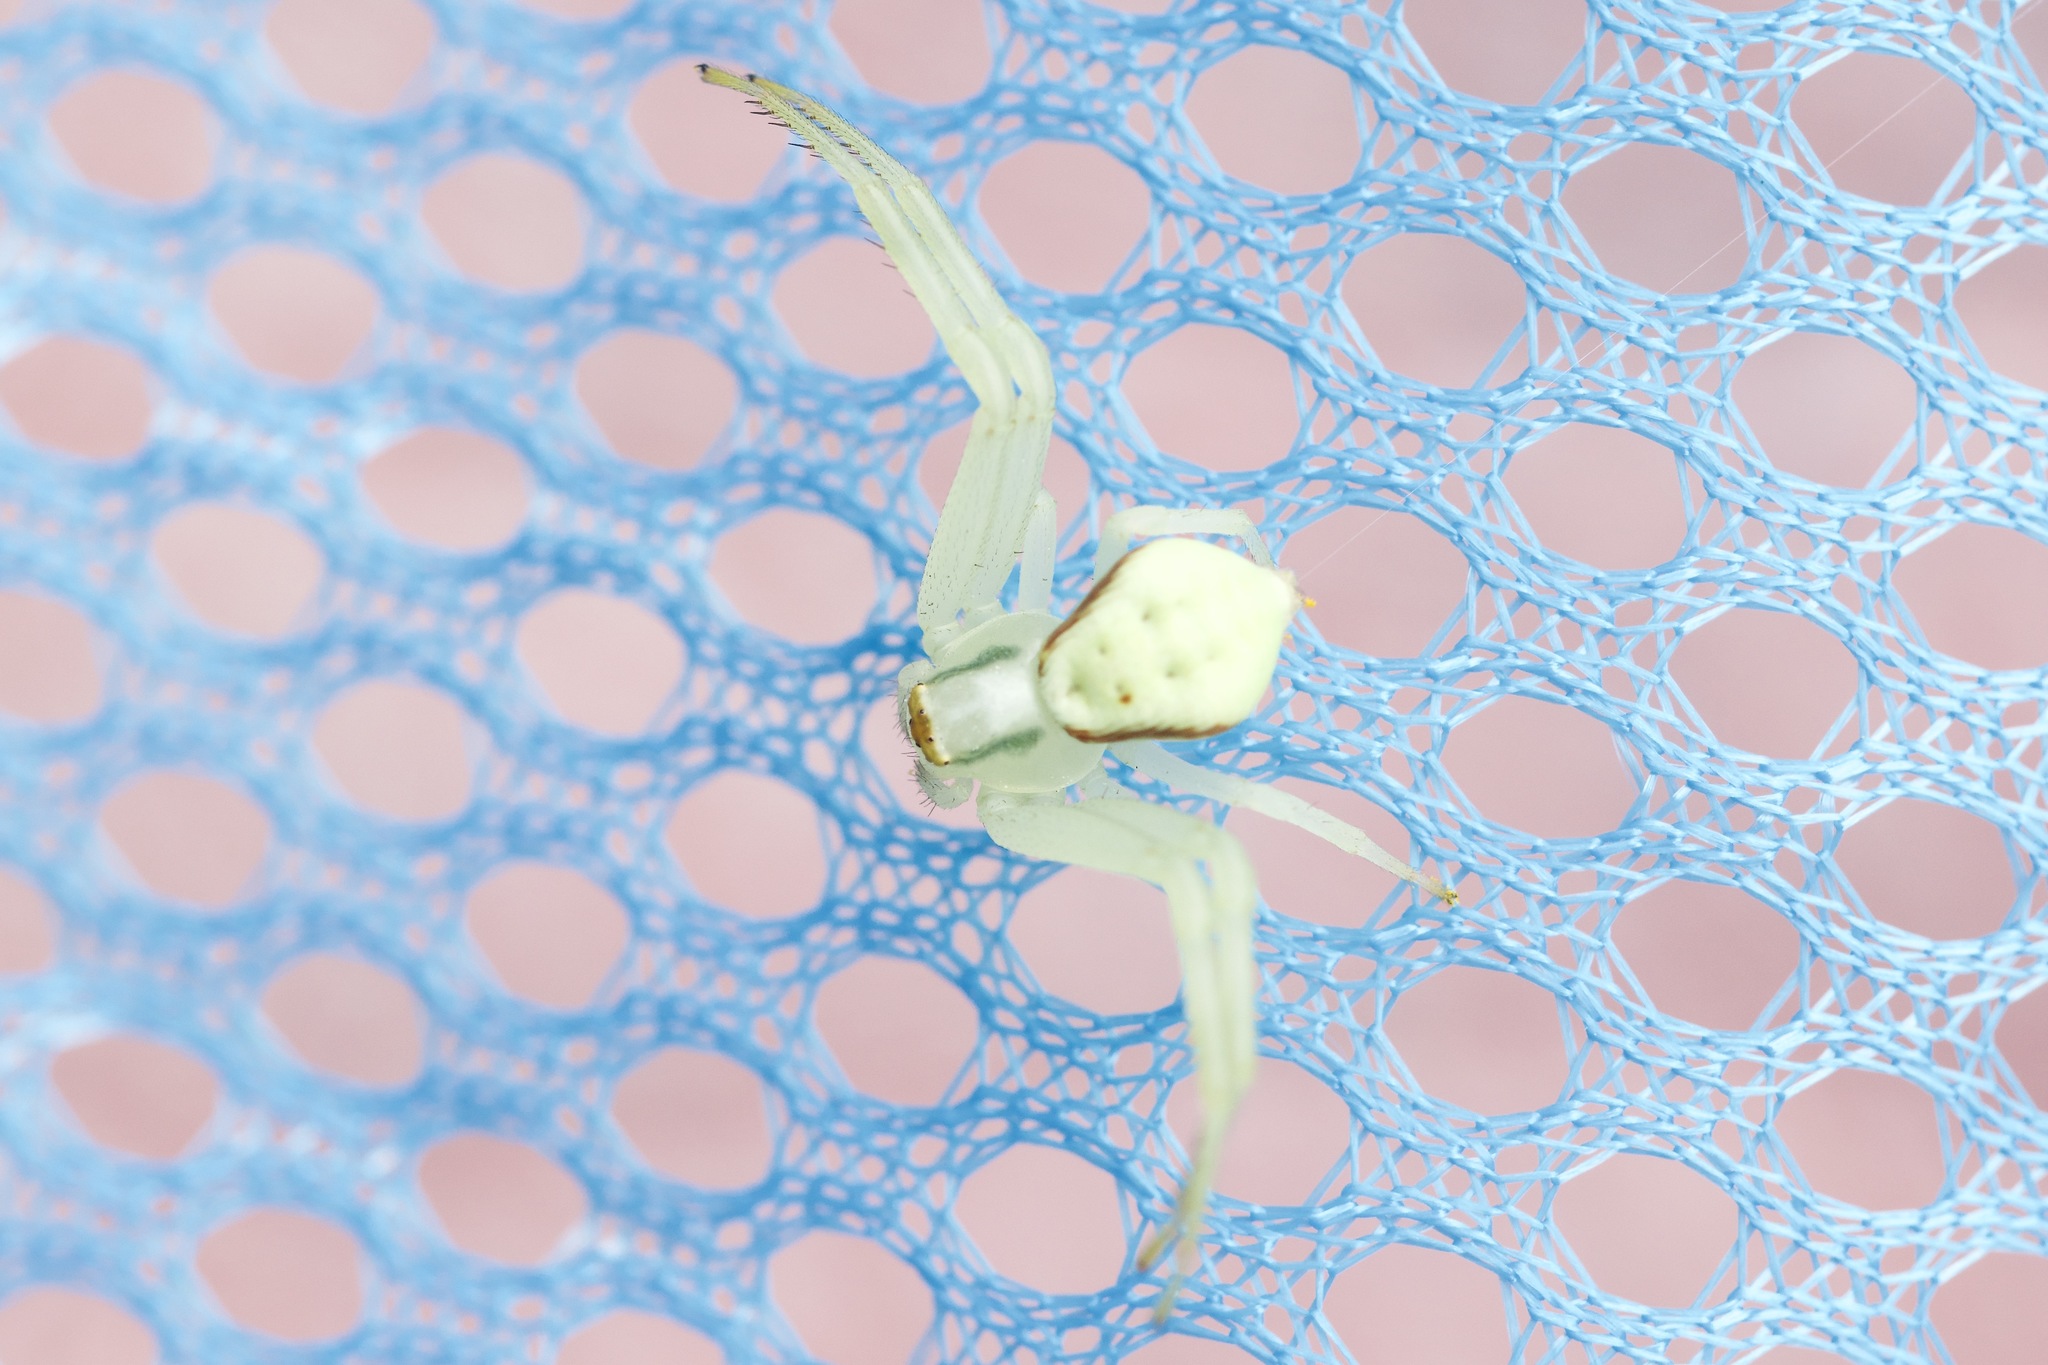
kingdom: Animalia
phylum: Arthropoda
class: Arachnida
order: Araneae
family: Thomisidae
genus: Misumena
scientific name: Misumena vatia
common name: Goldenrod crab spider
